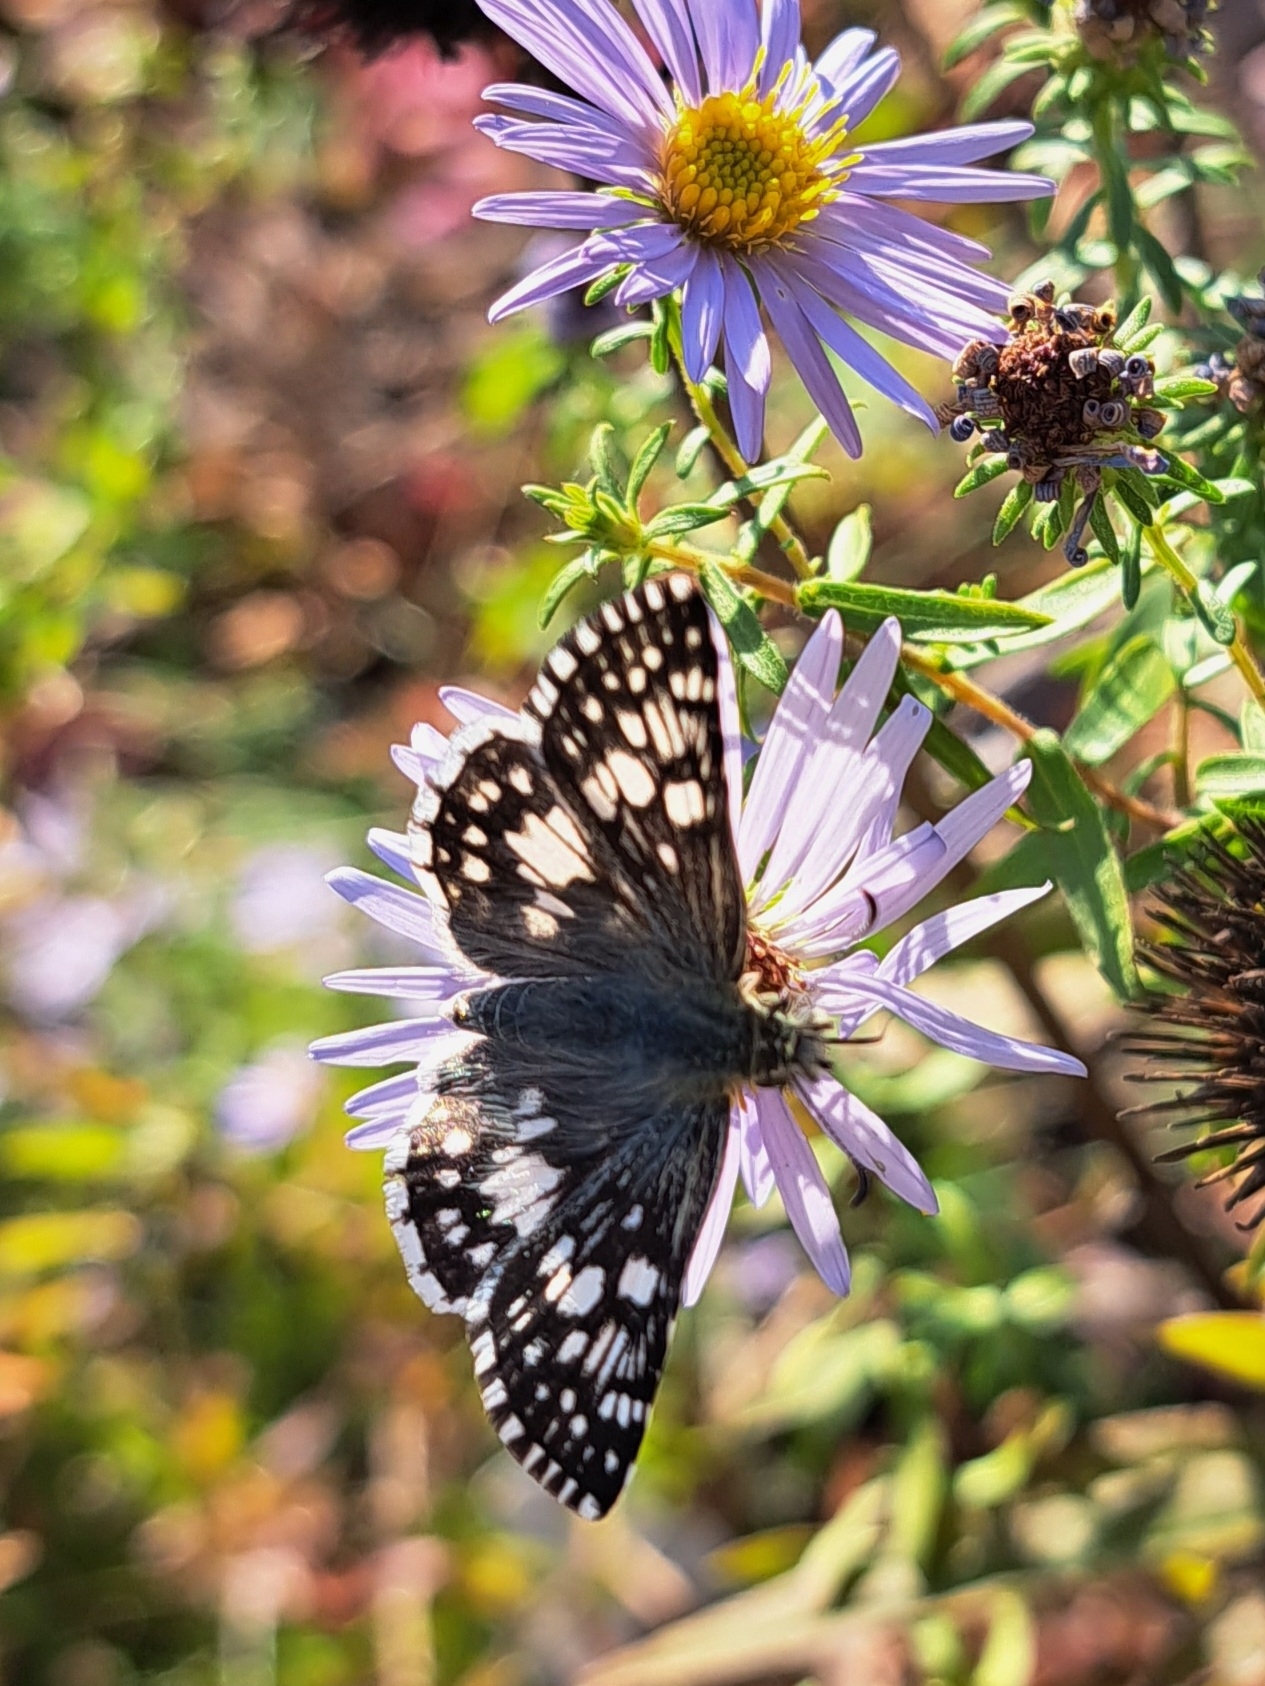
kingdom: Animalia
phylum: Arthropoda
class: Insecta
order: Lepidoptera
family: Hesperiidae
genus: Burnsius
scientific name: Burnsius communis
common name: Common checkered-skipper
